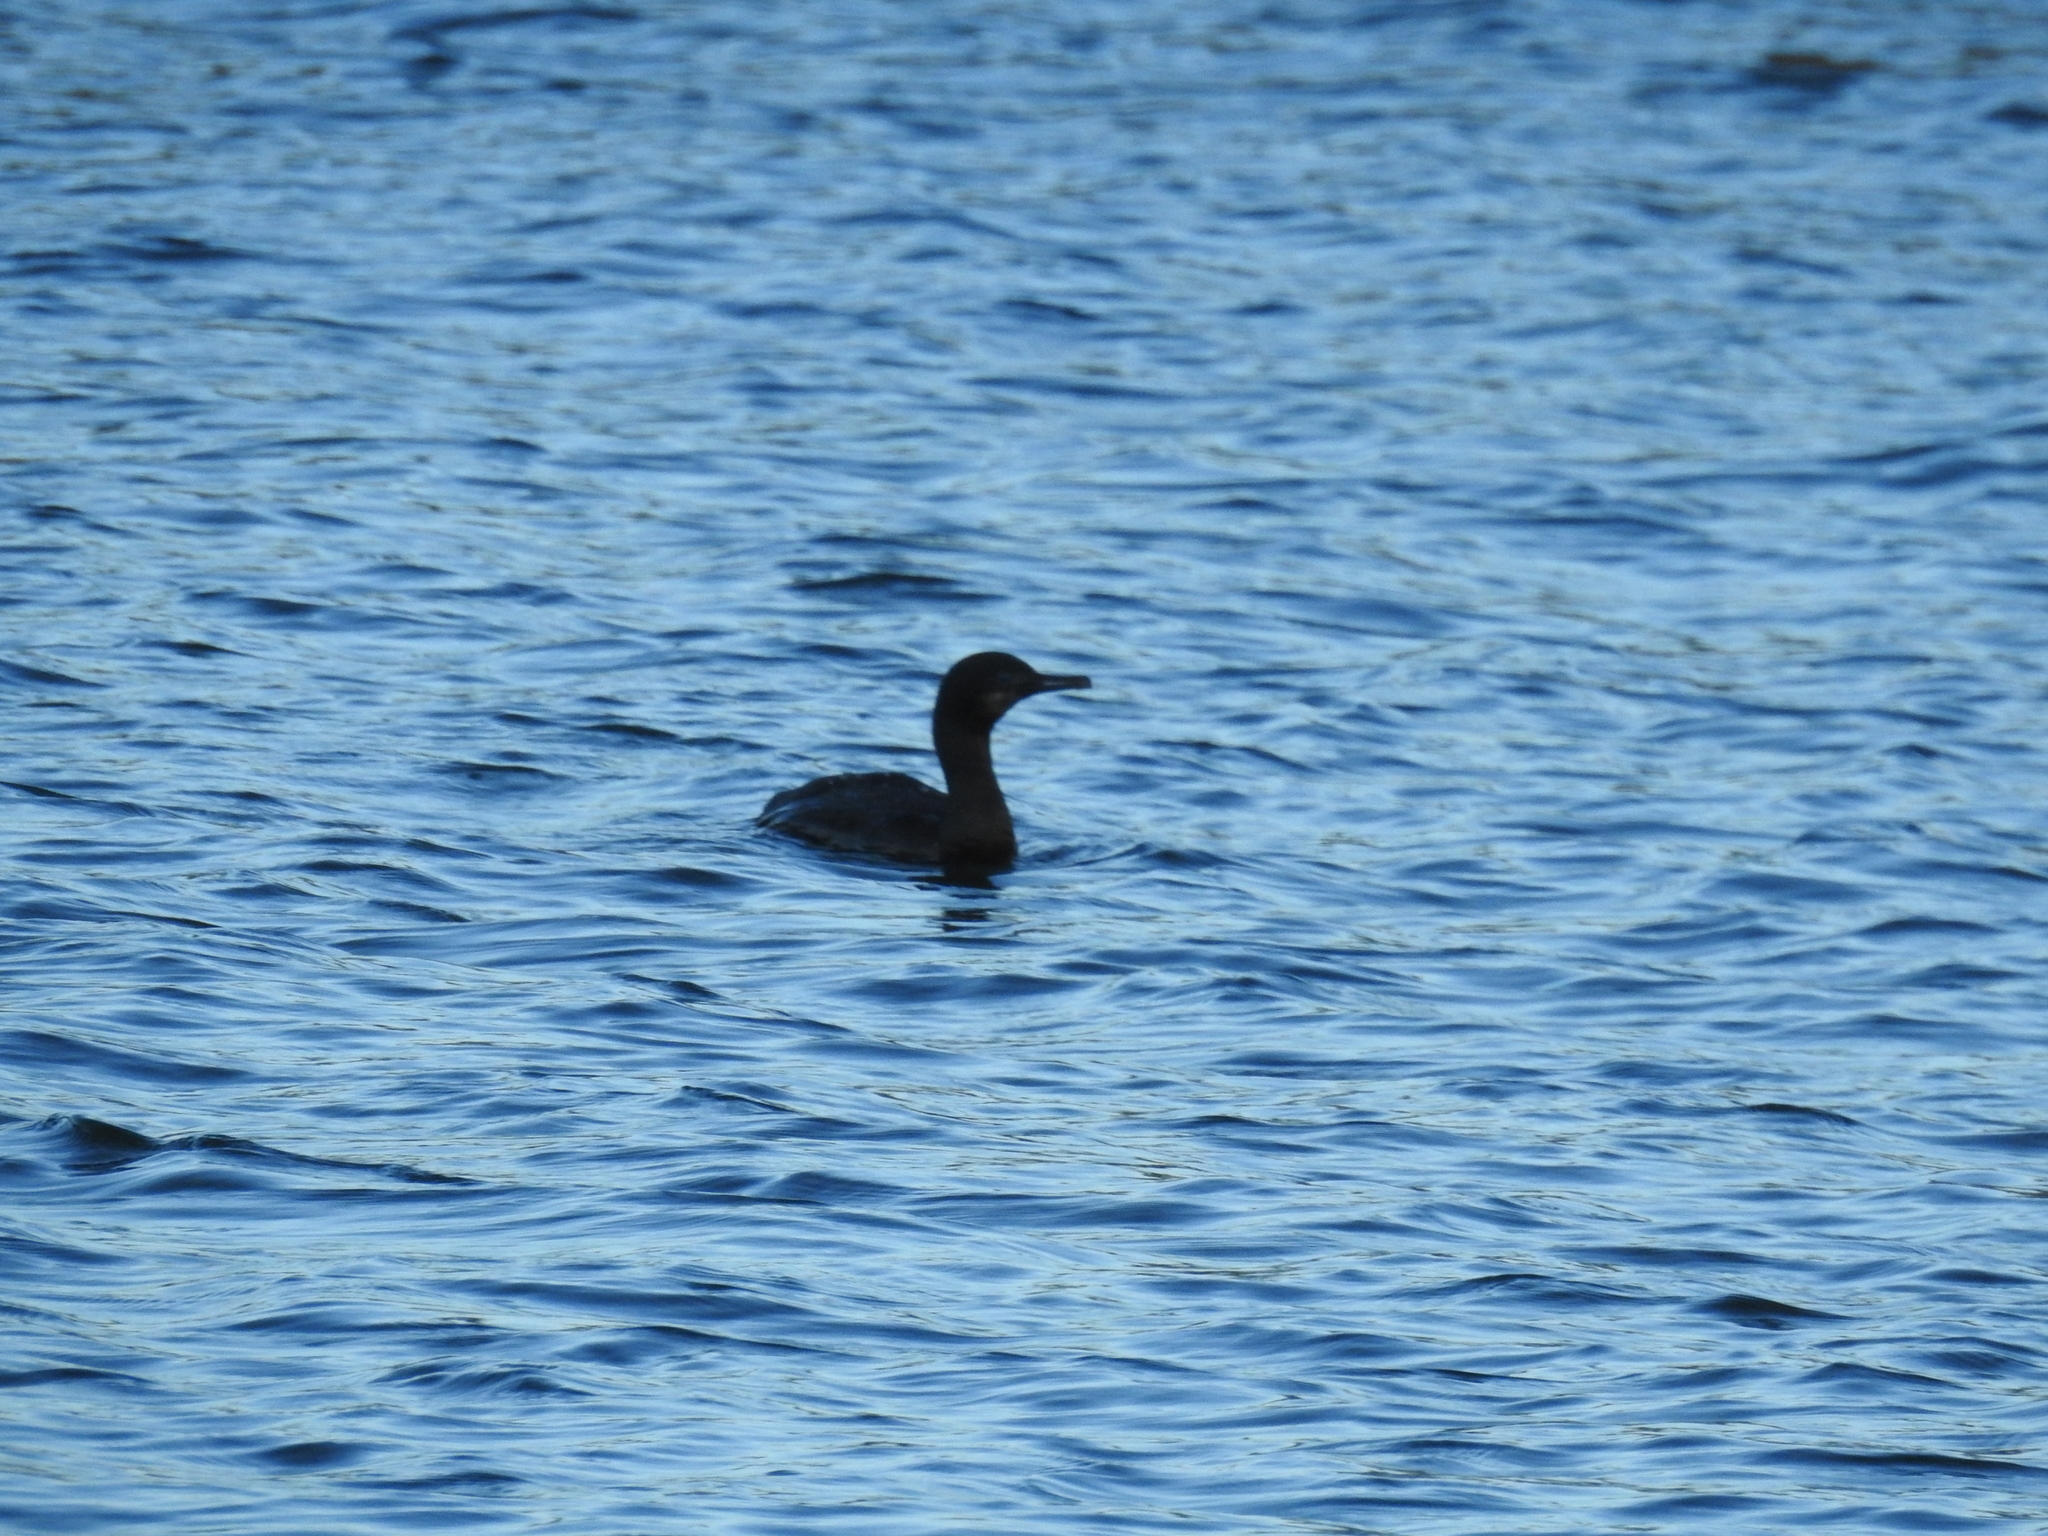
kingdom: Animalia
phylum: Chordata
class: Aves
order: Suliformes
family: Phalacrocoracidae
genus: Urile
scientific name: Urile penicillatus
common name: Brandt's cormorant
